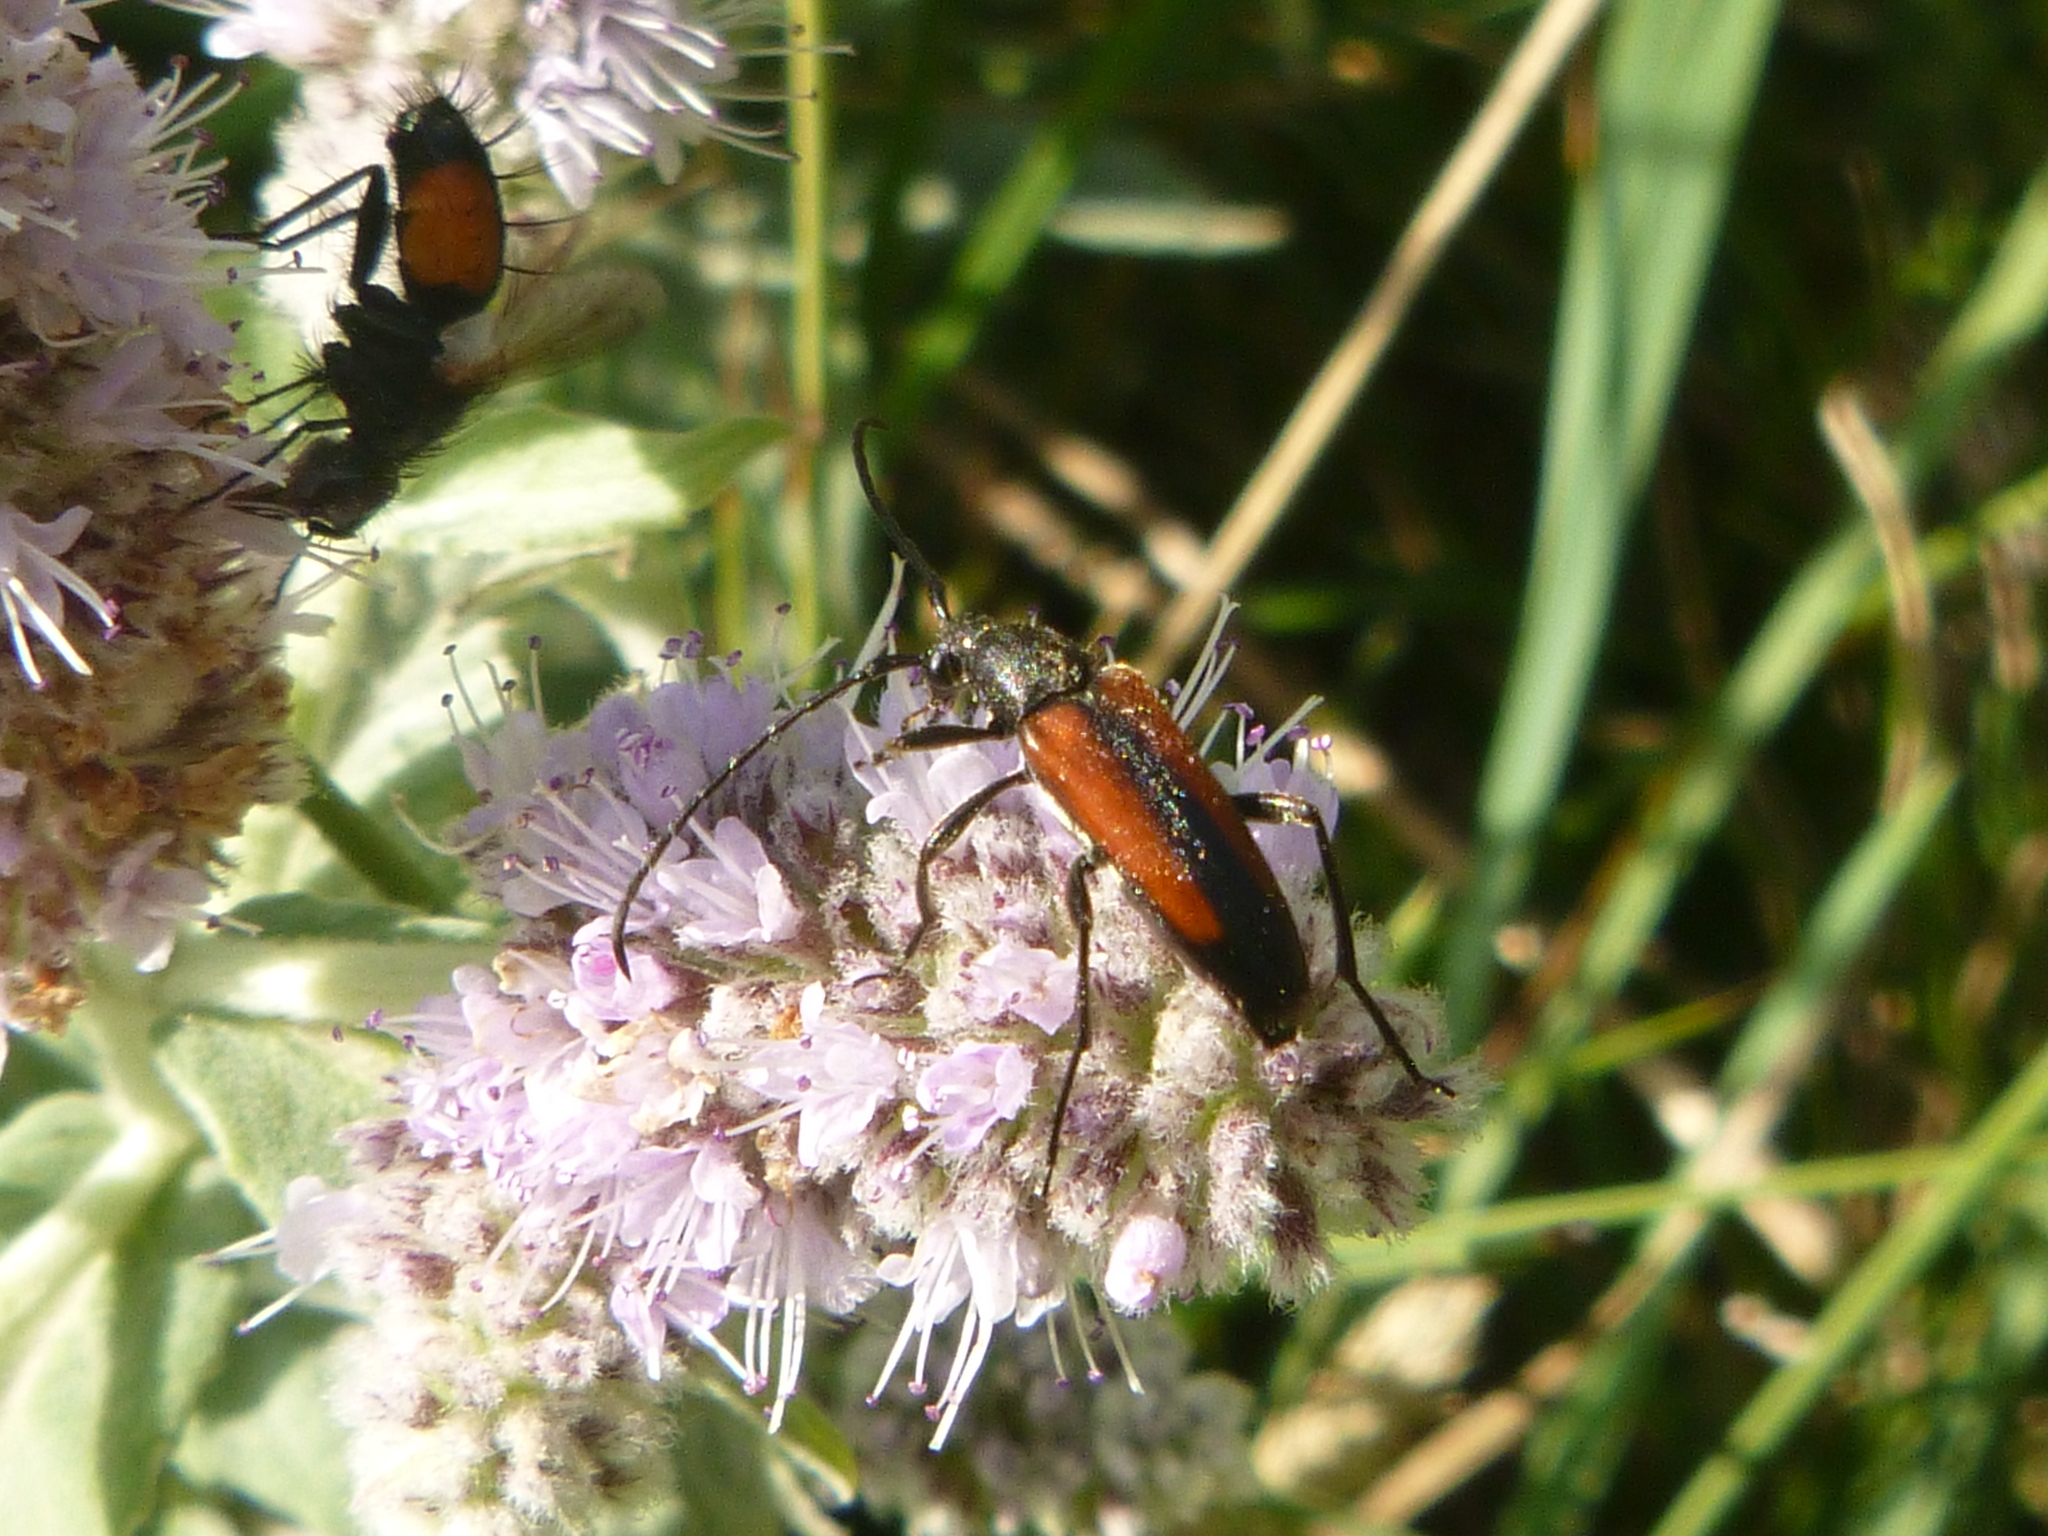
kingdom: Animalia
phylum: Arthropoda
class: Insecta
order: Coleoptera
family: Cerambycidae
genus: Stenurella
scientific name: Stenurella melanura
